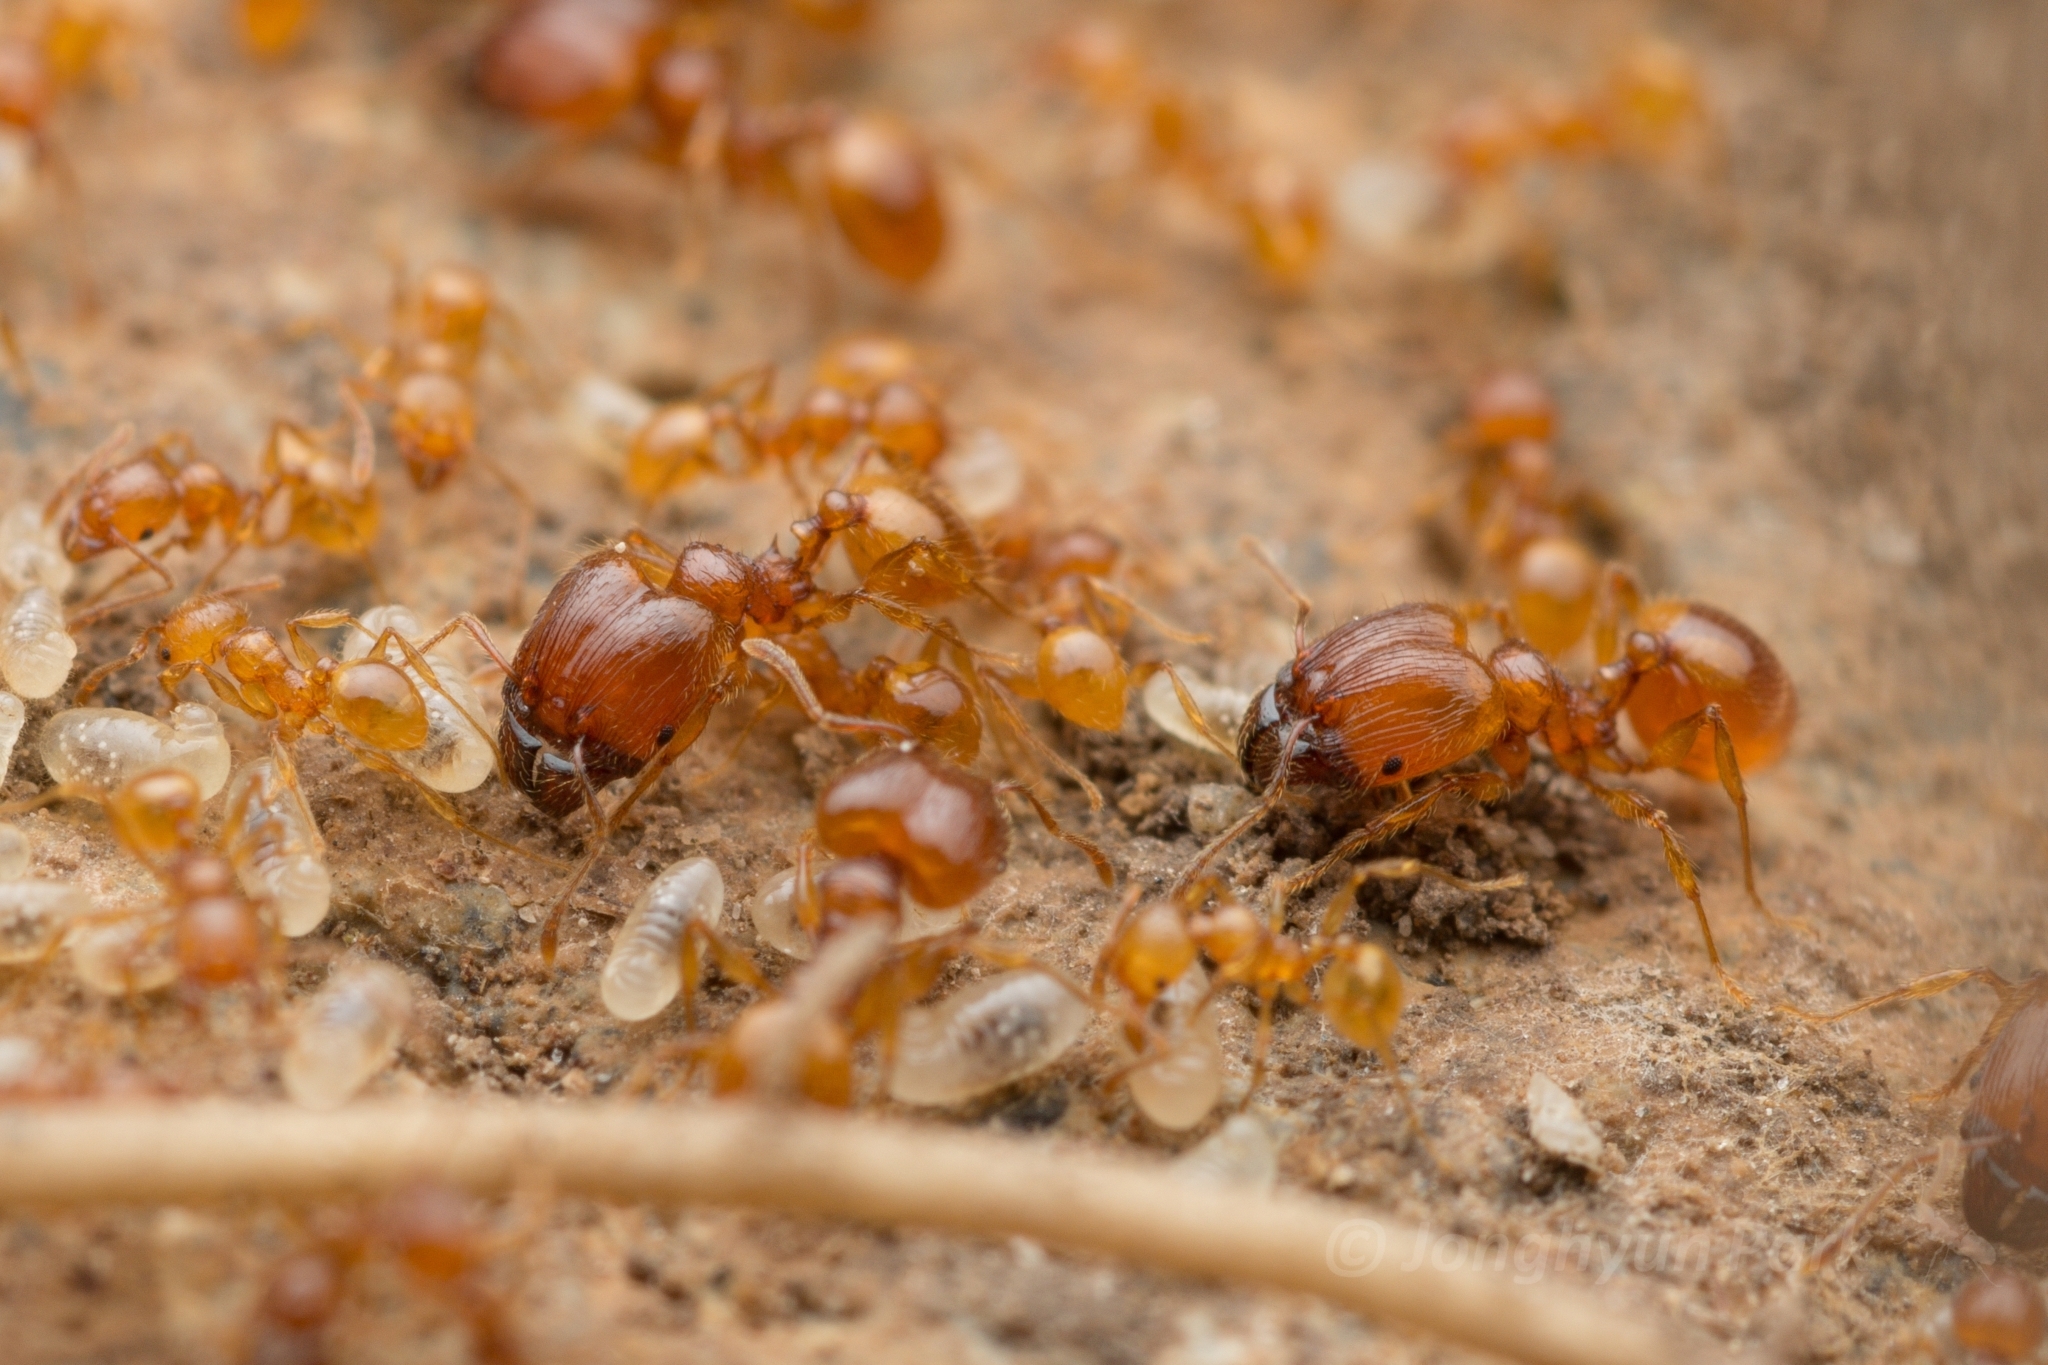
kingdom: Animalia
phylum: Arthropoda
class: Insecta
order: Hymenoptera
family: Formicidae
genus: Pheidole
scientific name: Pheidole fervida
